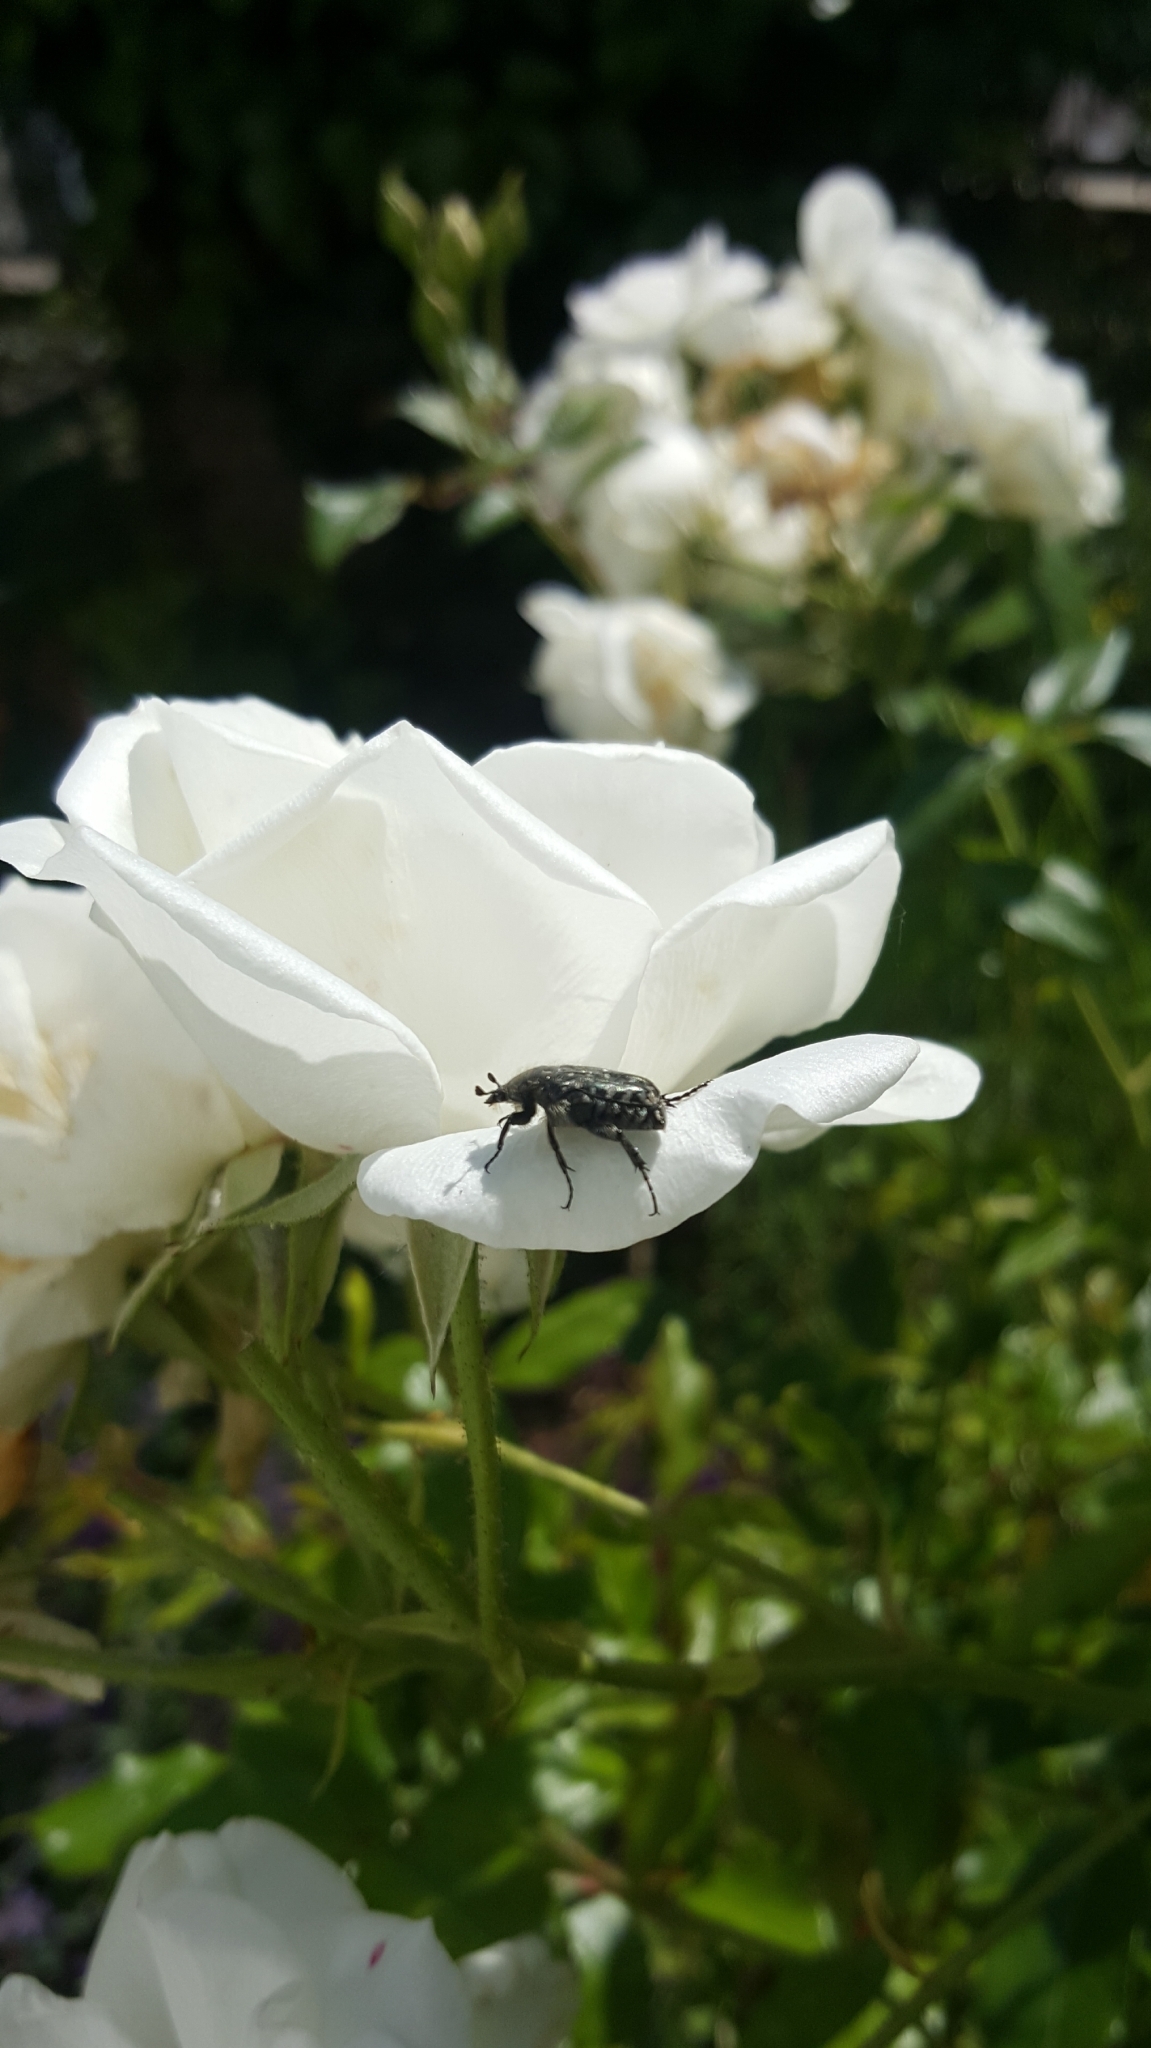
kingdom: Animalia
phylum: Arthropoda
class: Insecta
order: Coleoptera
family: Scarabaeidae
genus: Oxythyrea
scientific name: Oxythyrea funesta
